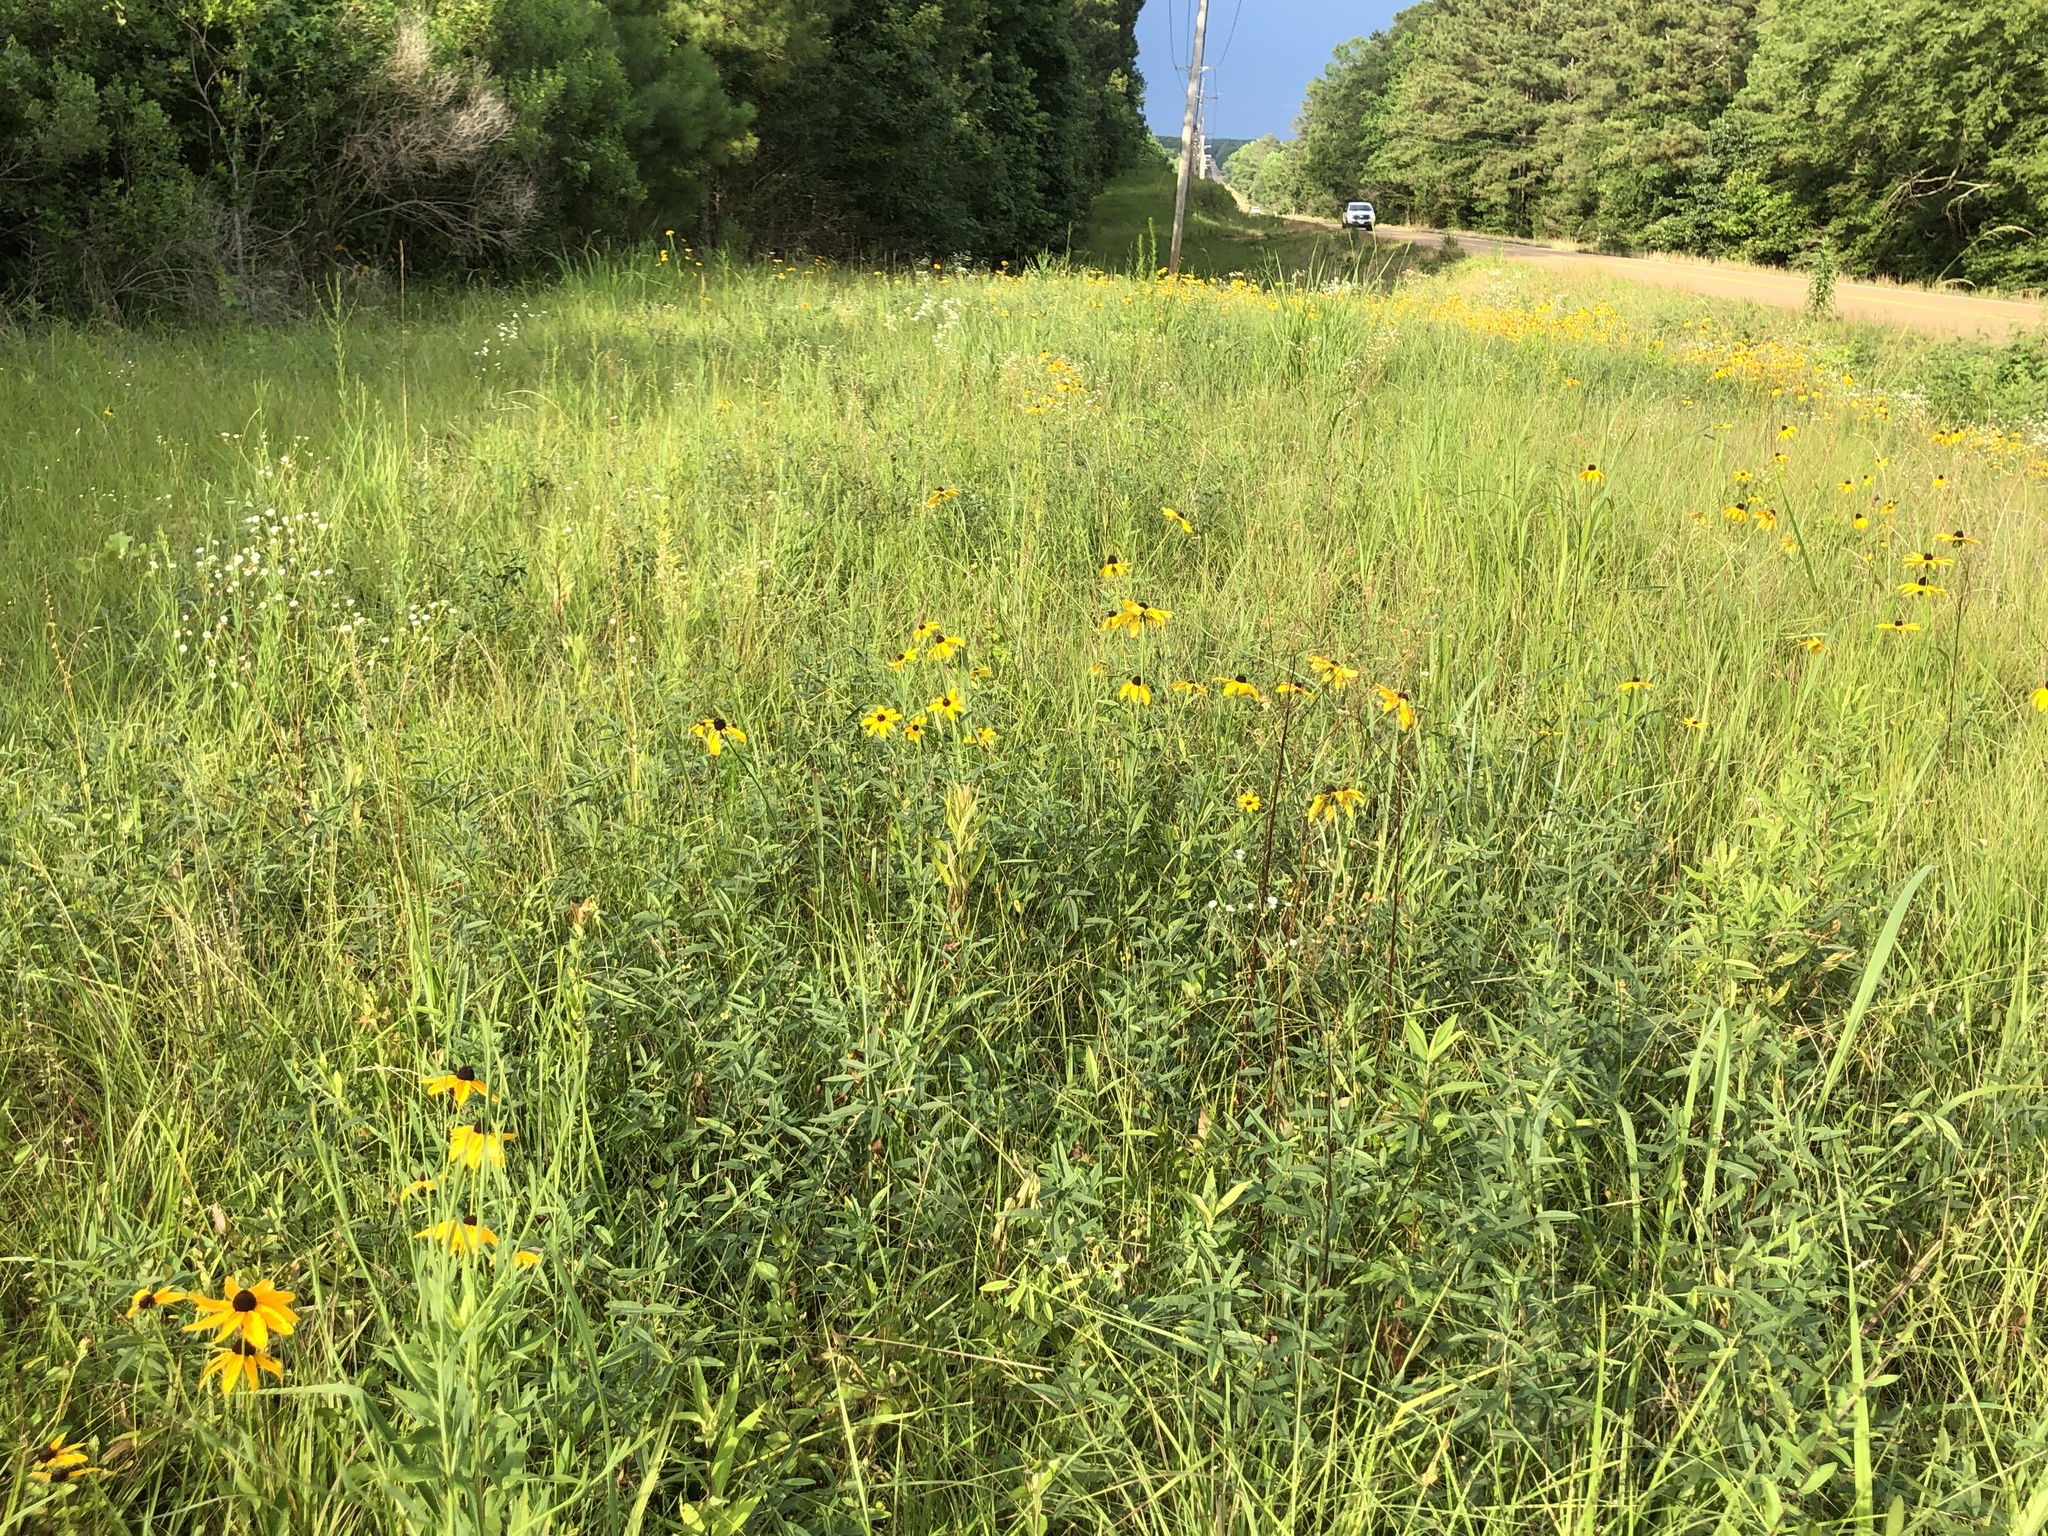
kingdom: Plantae
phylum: Tracheophyta
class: Magnoliopsida
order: Fabales
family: Fabaceae
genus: Orbexilum
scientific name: Orbexilum pedunculatum
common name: Sampson's snakeroot
